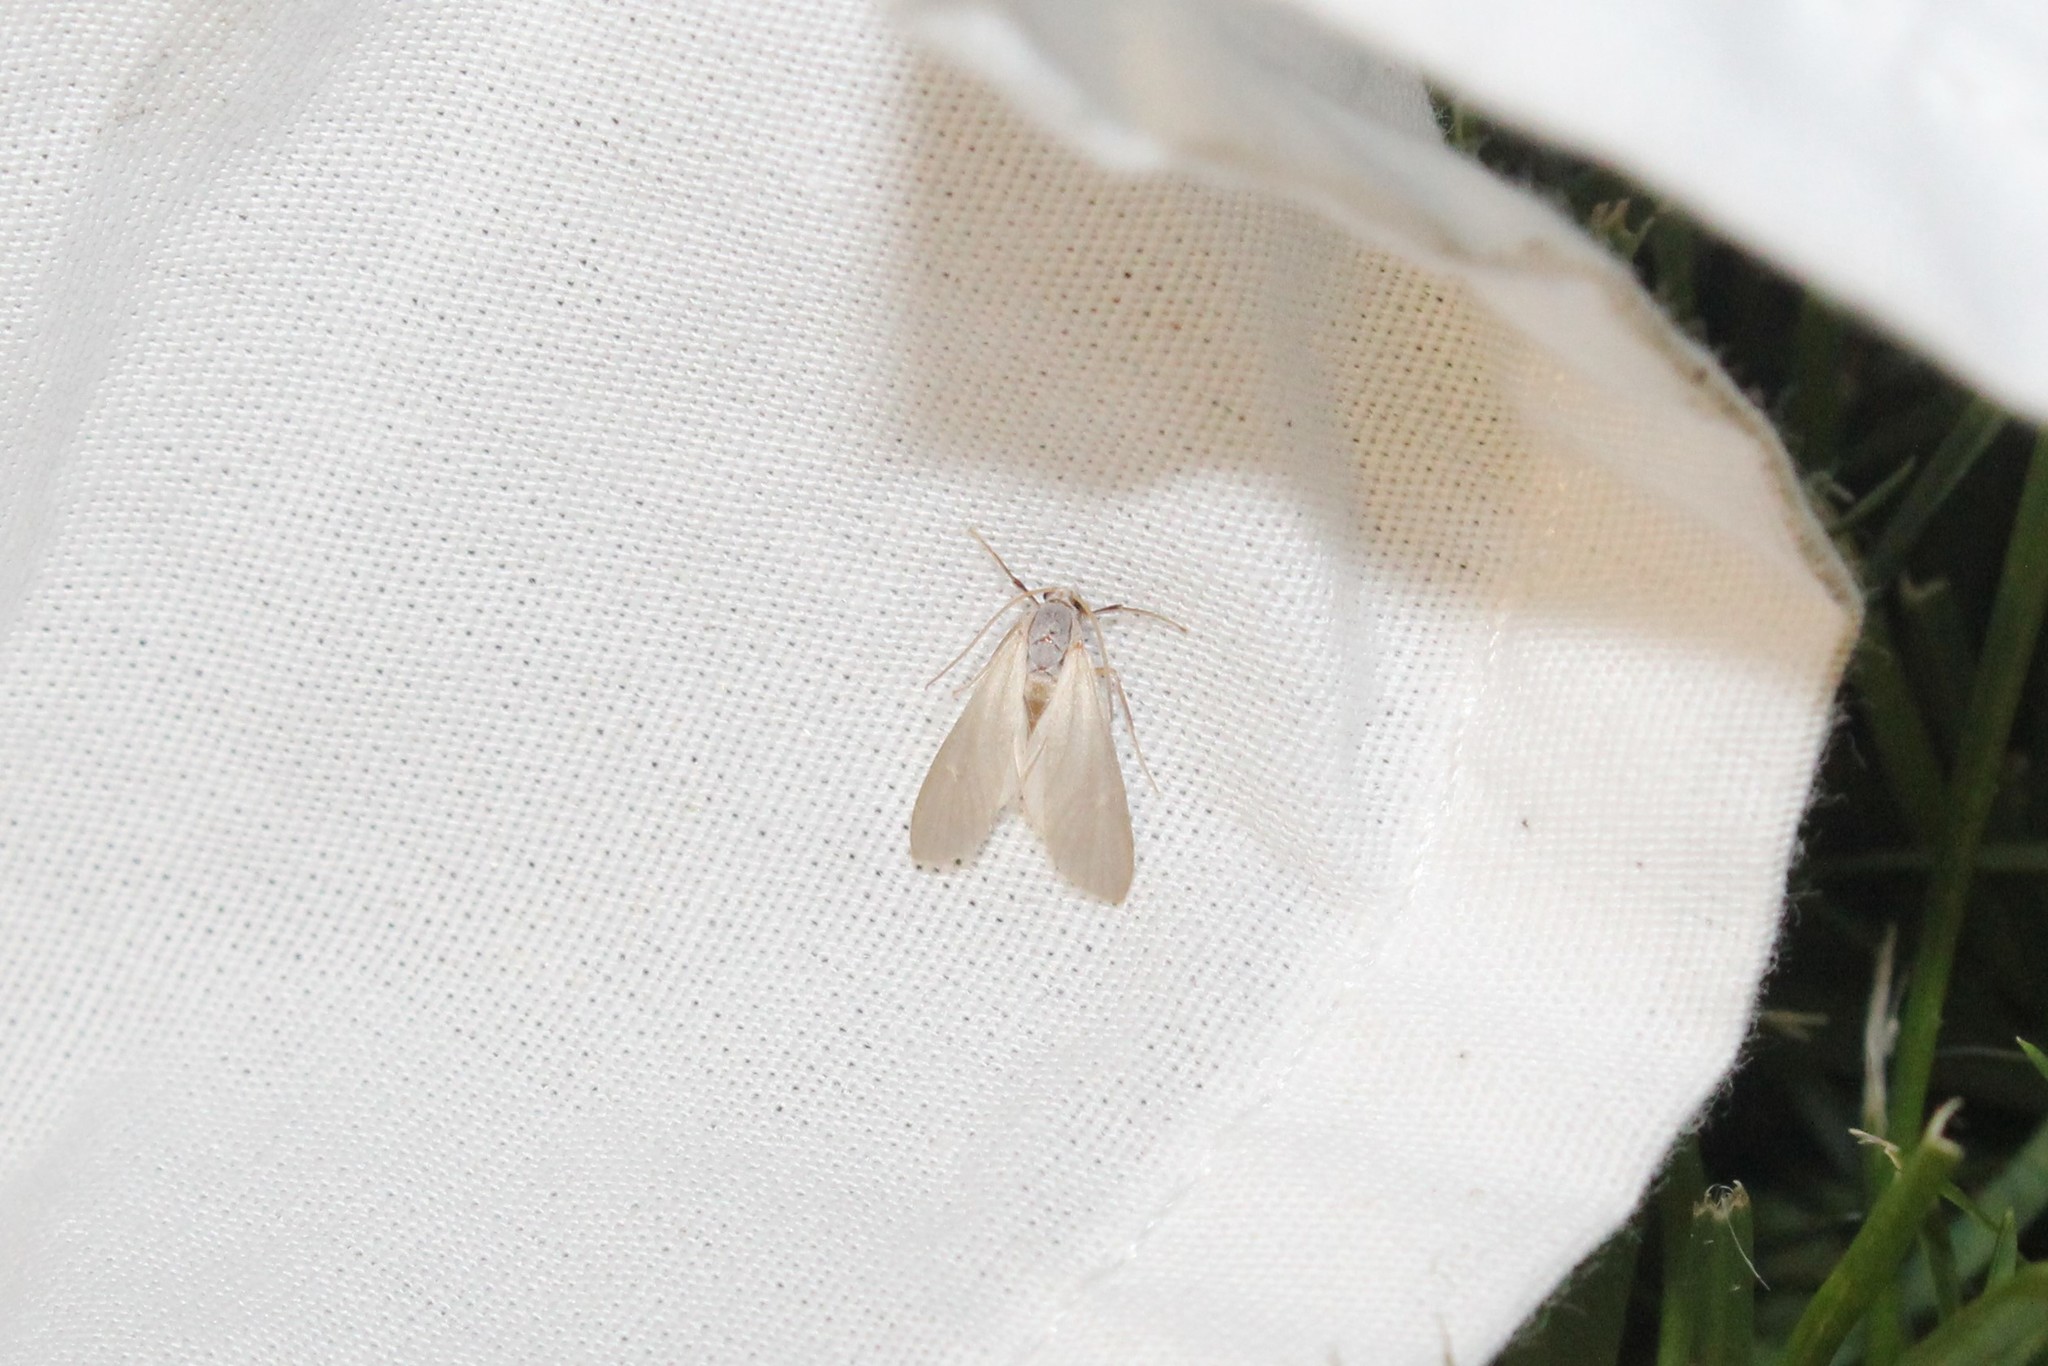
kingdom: Animalia
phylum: Arthropoda
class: Insecta
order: Lepidoptera
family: Crambidae
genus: Acentria
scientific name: Acentria ephemerella
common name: European water moth
